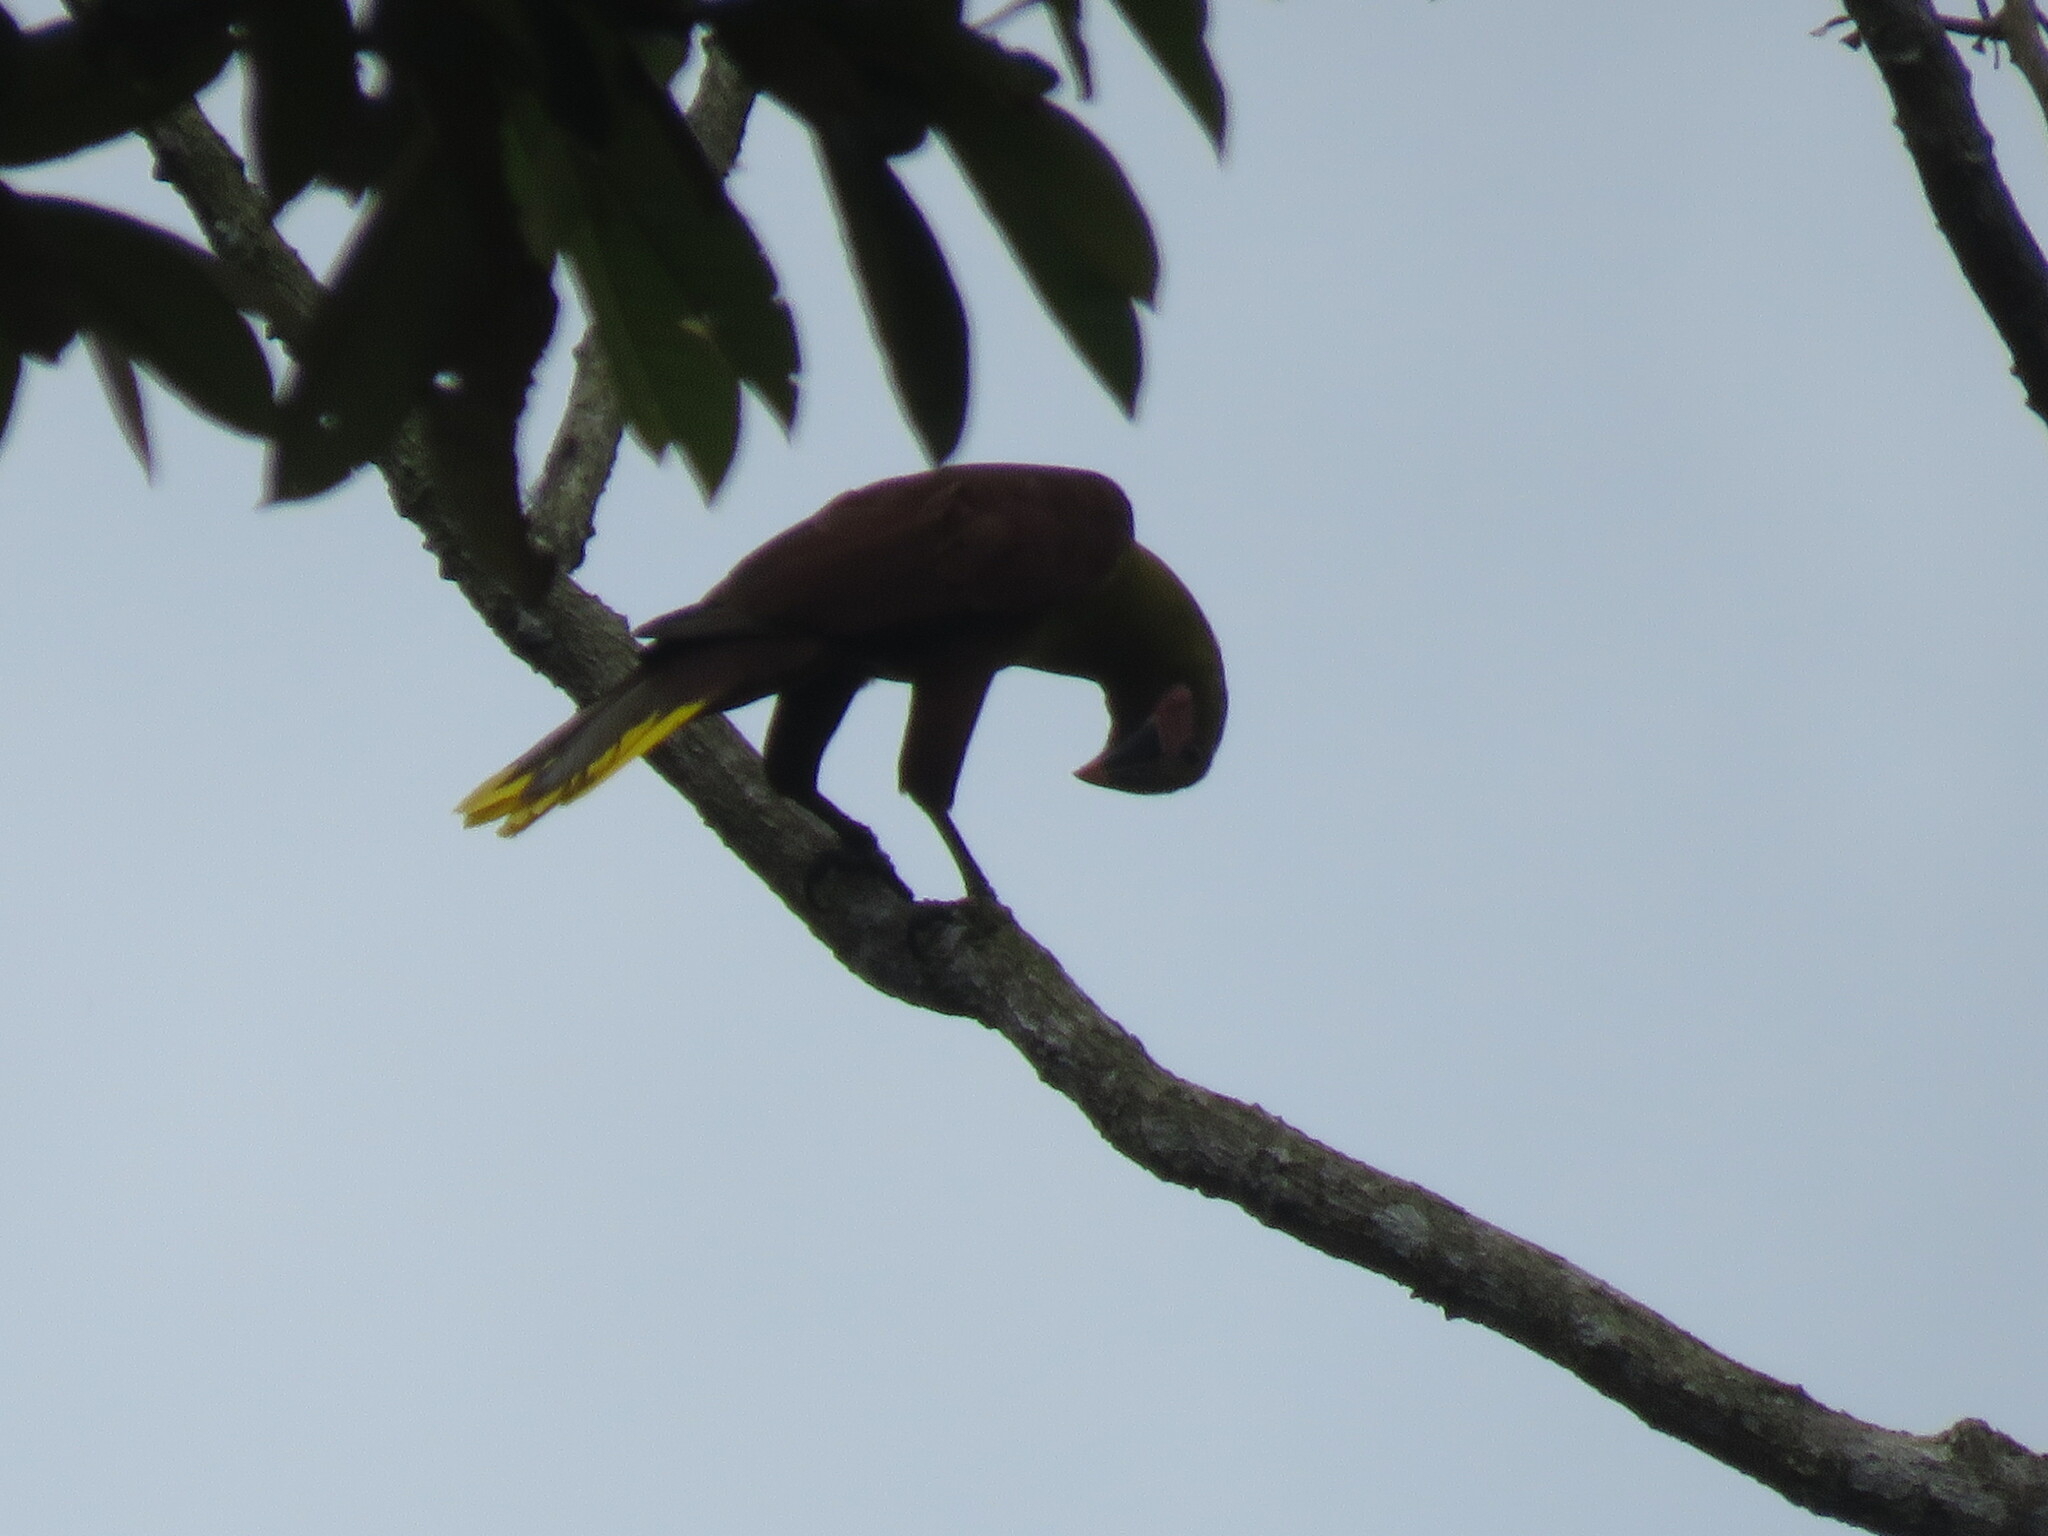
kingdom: Animalia
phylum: Chordata
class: Aves
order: Passeriformes
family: Icteridae
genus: Psarocolius
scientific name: Psarocolius bifasciatus
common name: Olive oropendola
